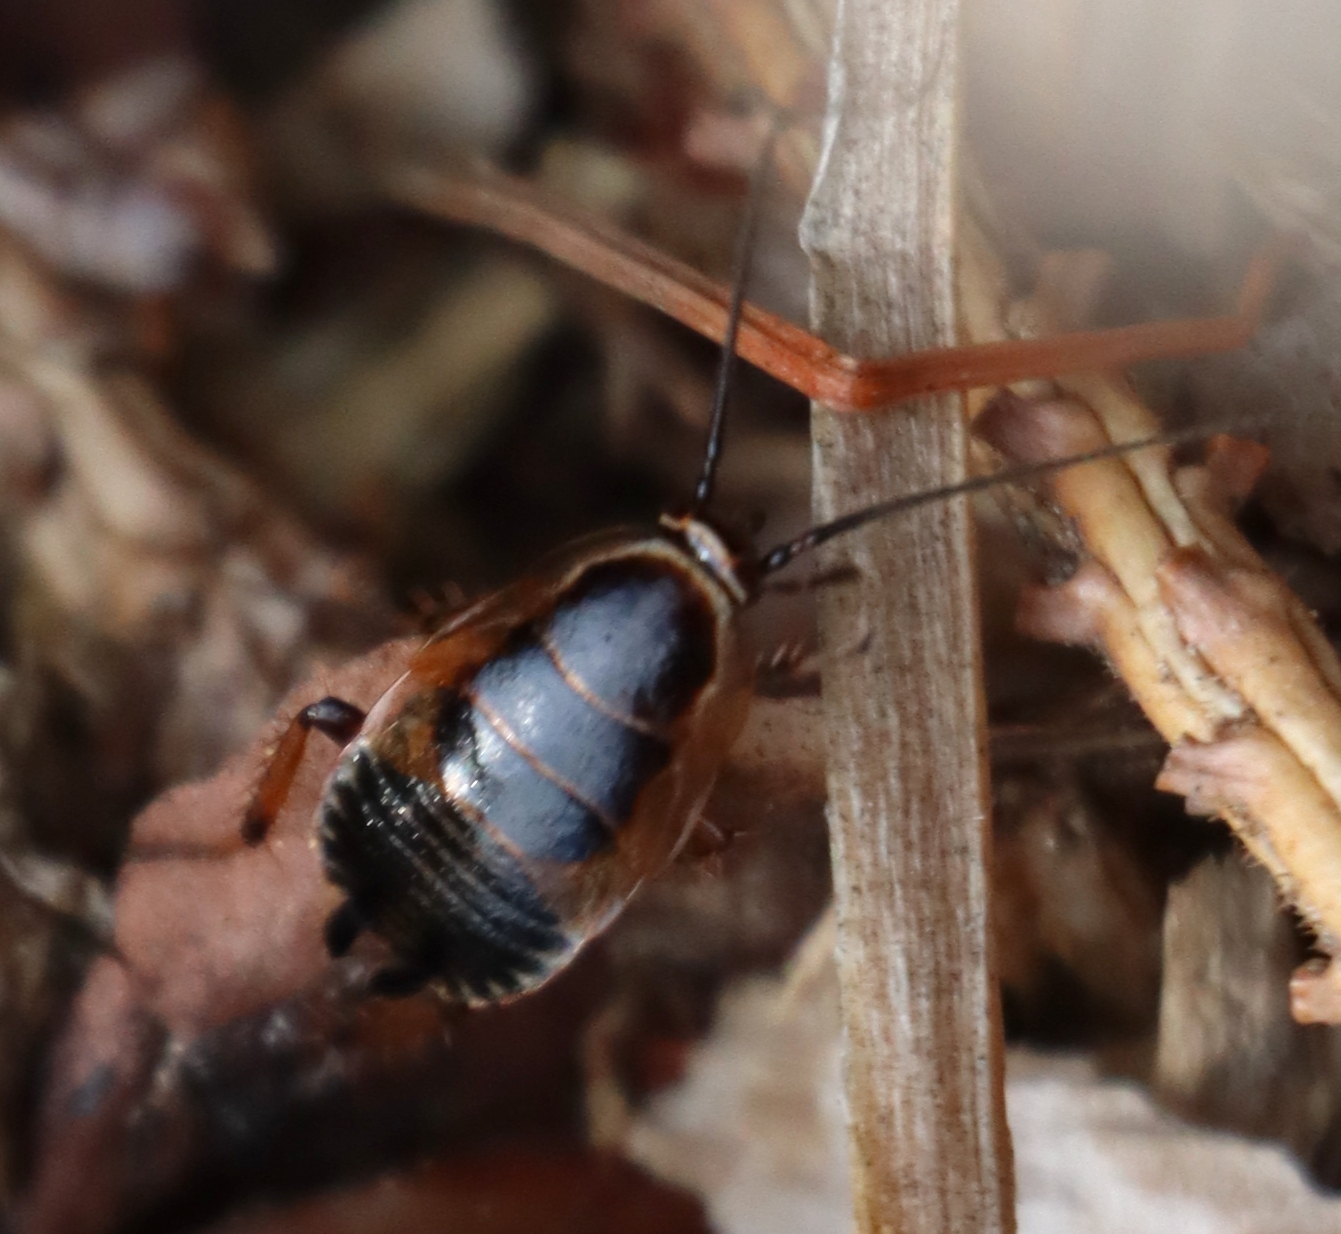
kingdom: Animalia
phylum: Arthropoda
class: Insecta
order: Blattodea
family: Ectobiidae
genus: Ectobius
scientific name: Ectobius sylvestris
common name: Forest cockroach
